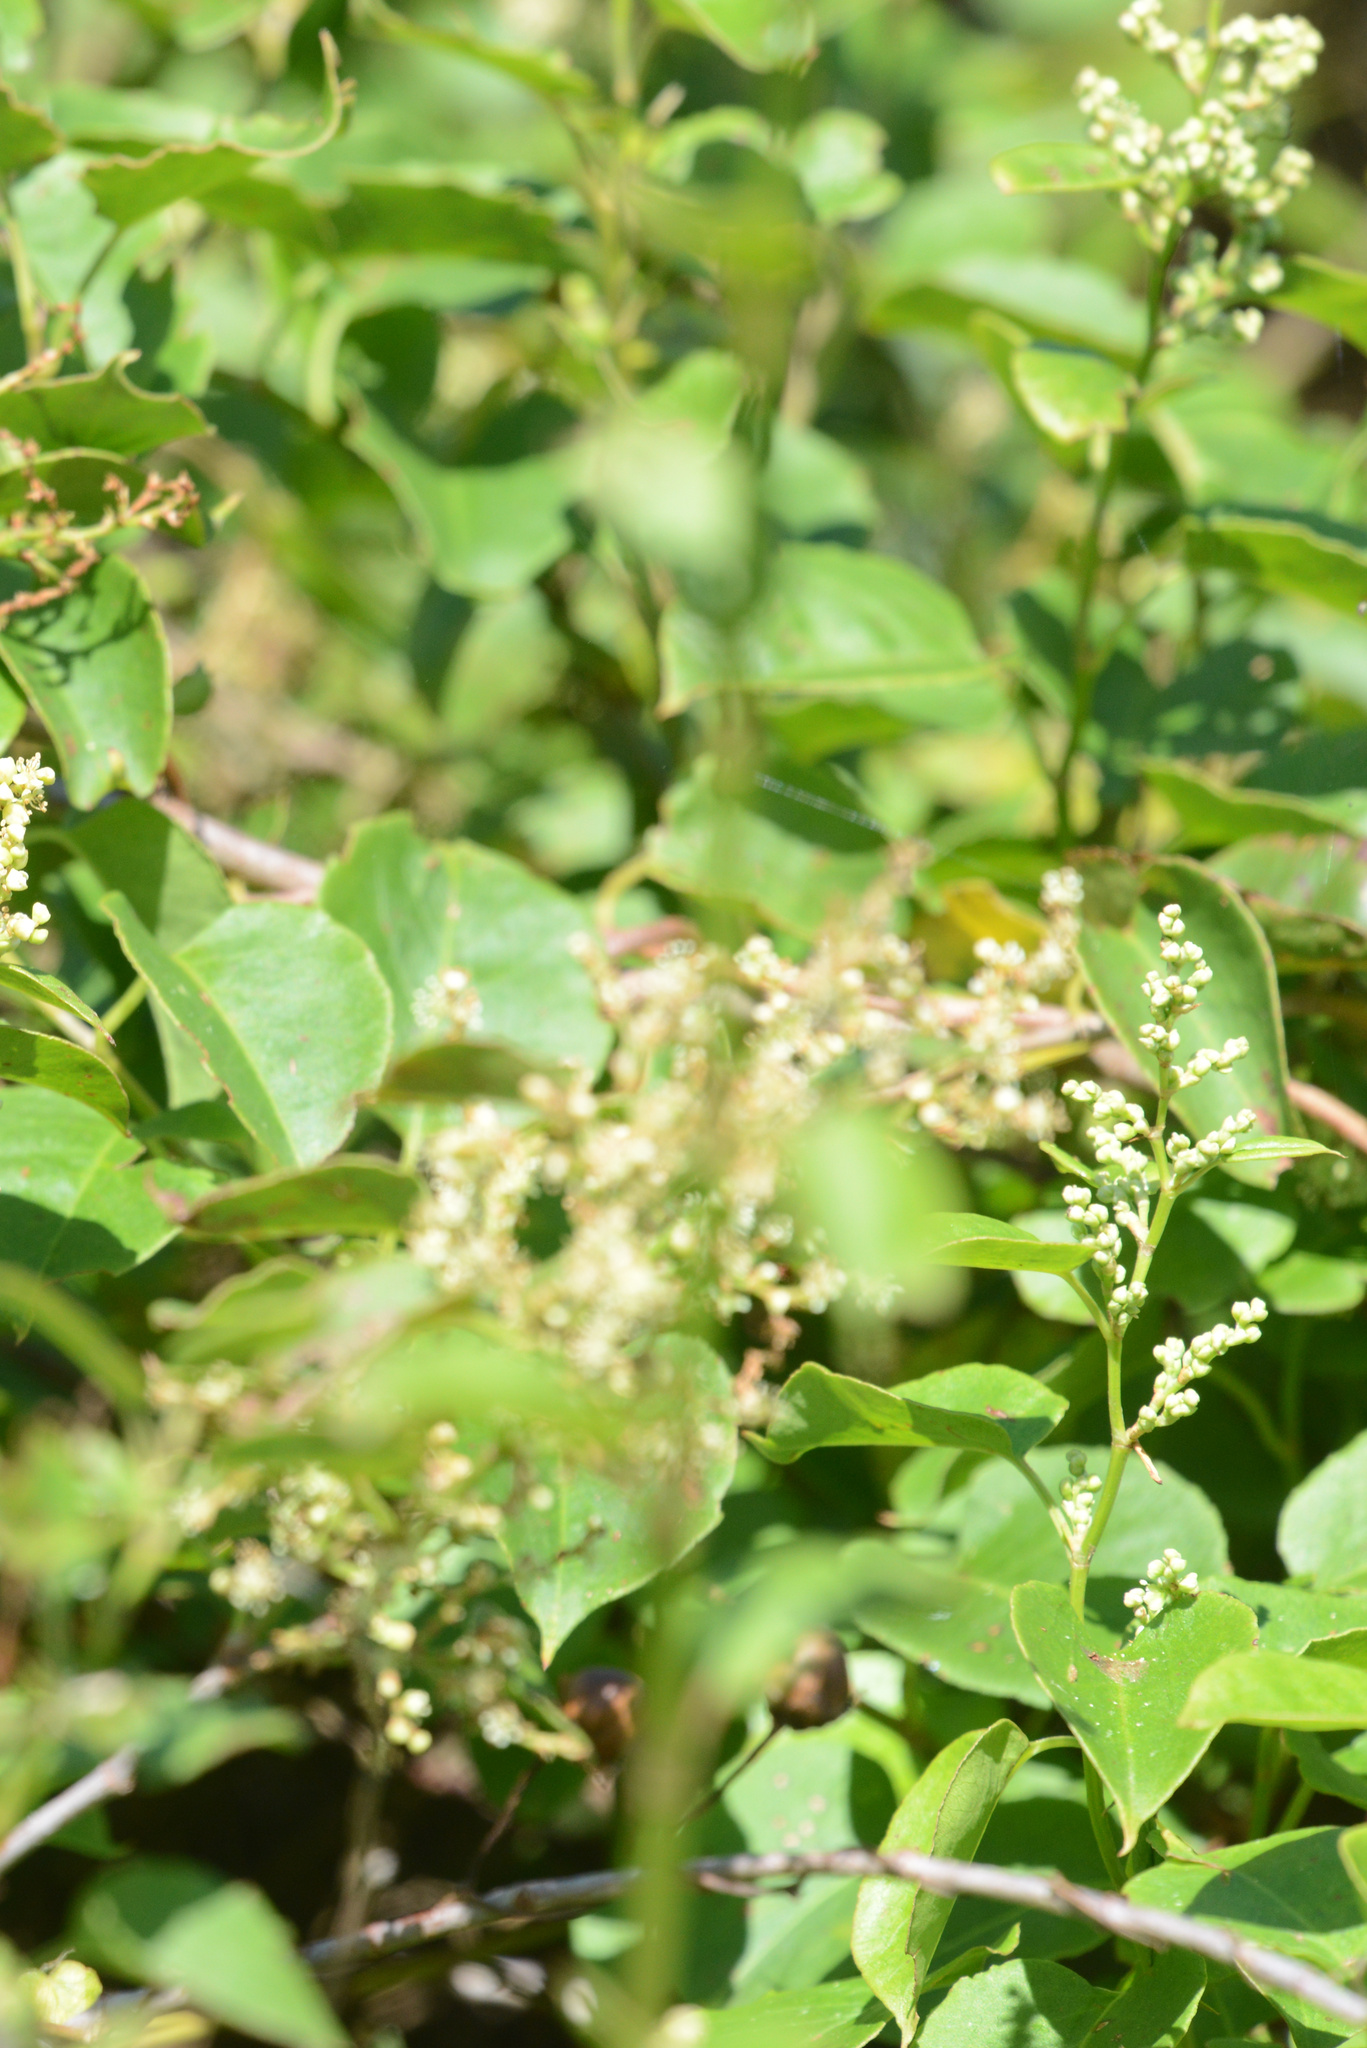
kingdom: Plantae
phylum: Tracheophyta
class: Magnoliopsida
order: Caryophyllales
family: Polygonaceae
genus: Muehlenbeckia
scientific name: Muehlenbeckia australis
